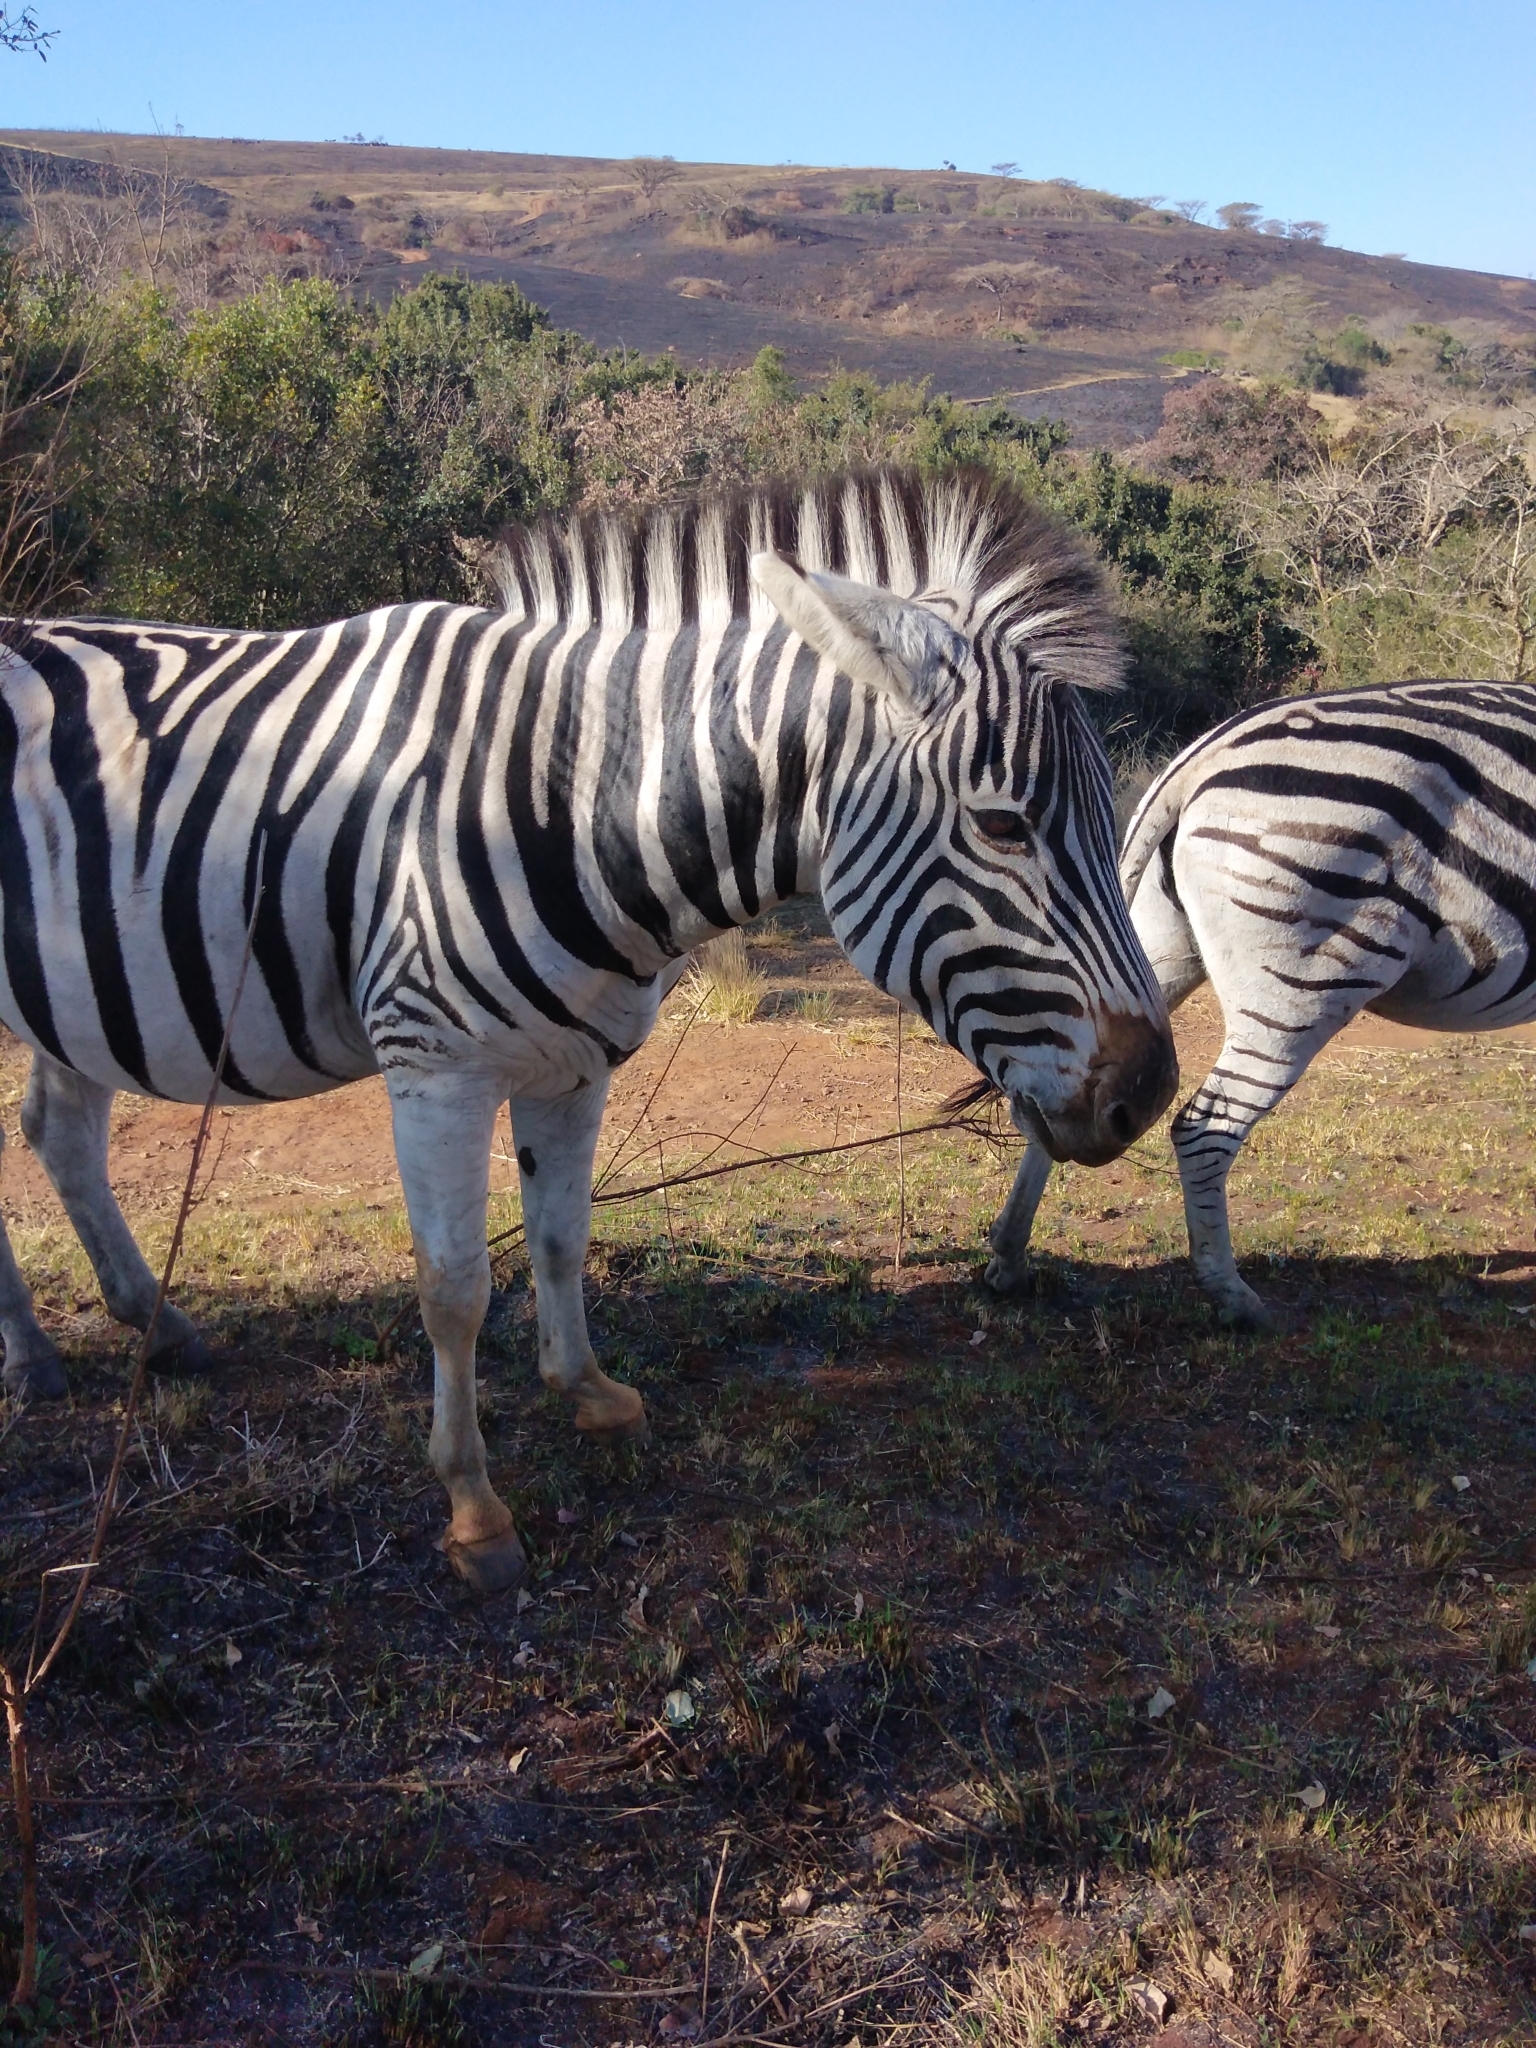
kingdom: Animalia
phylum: Chordata
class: Mammalia
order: Perissodactyla
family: Equidae
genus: Equus
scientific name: Equus quagga
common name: Plains zebra
